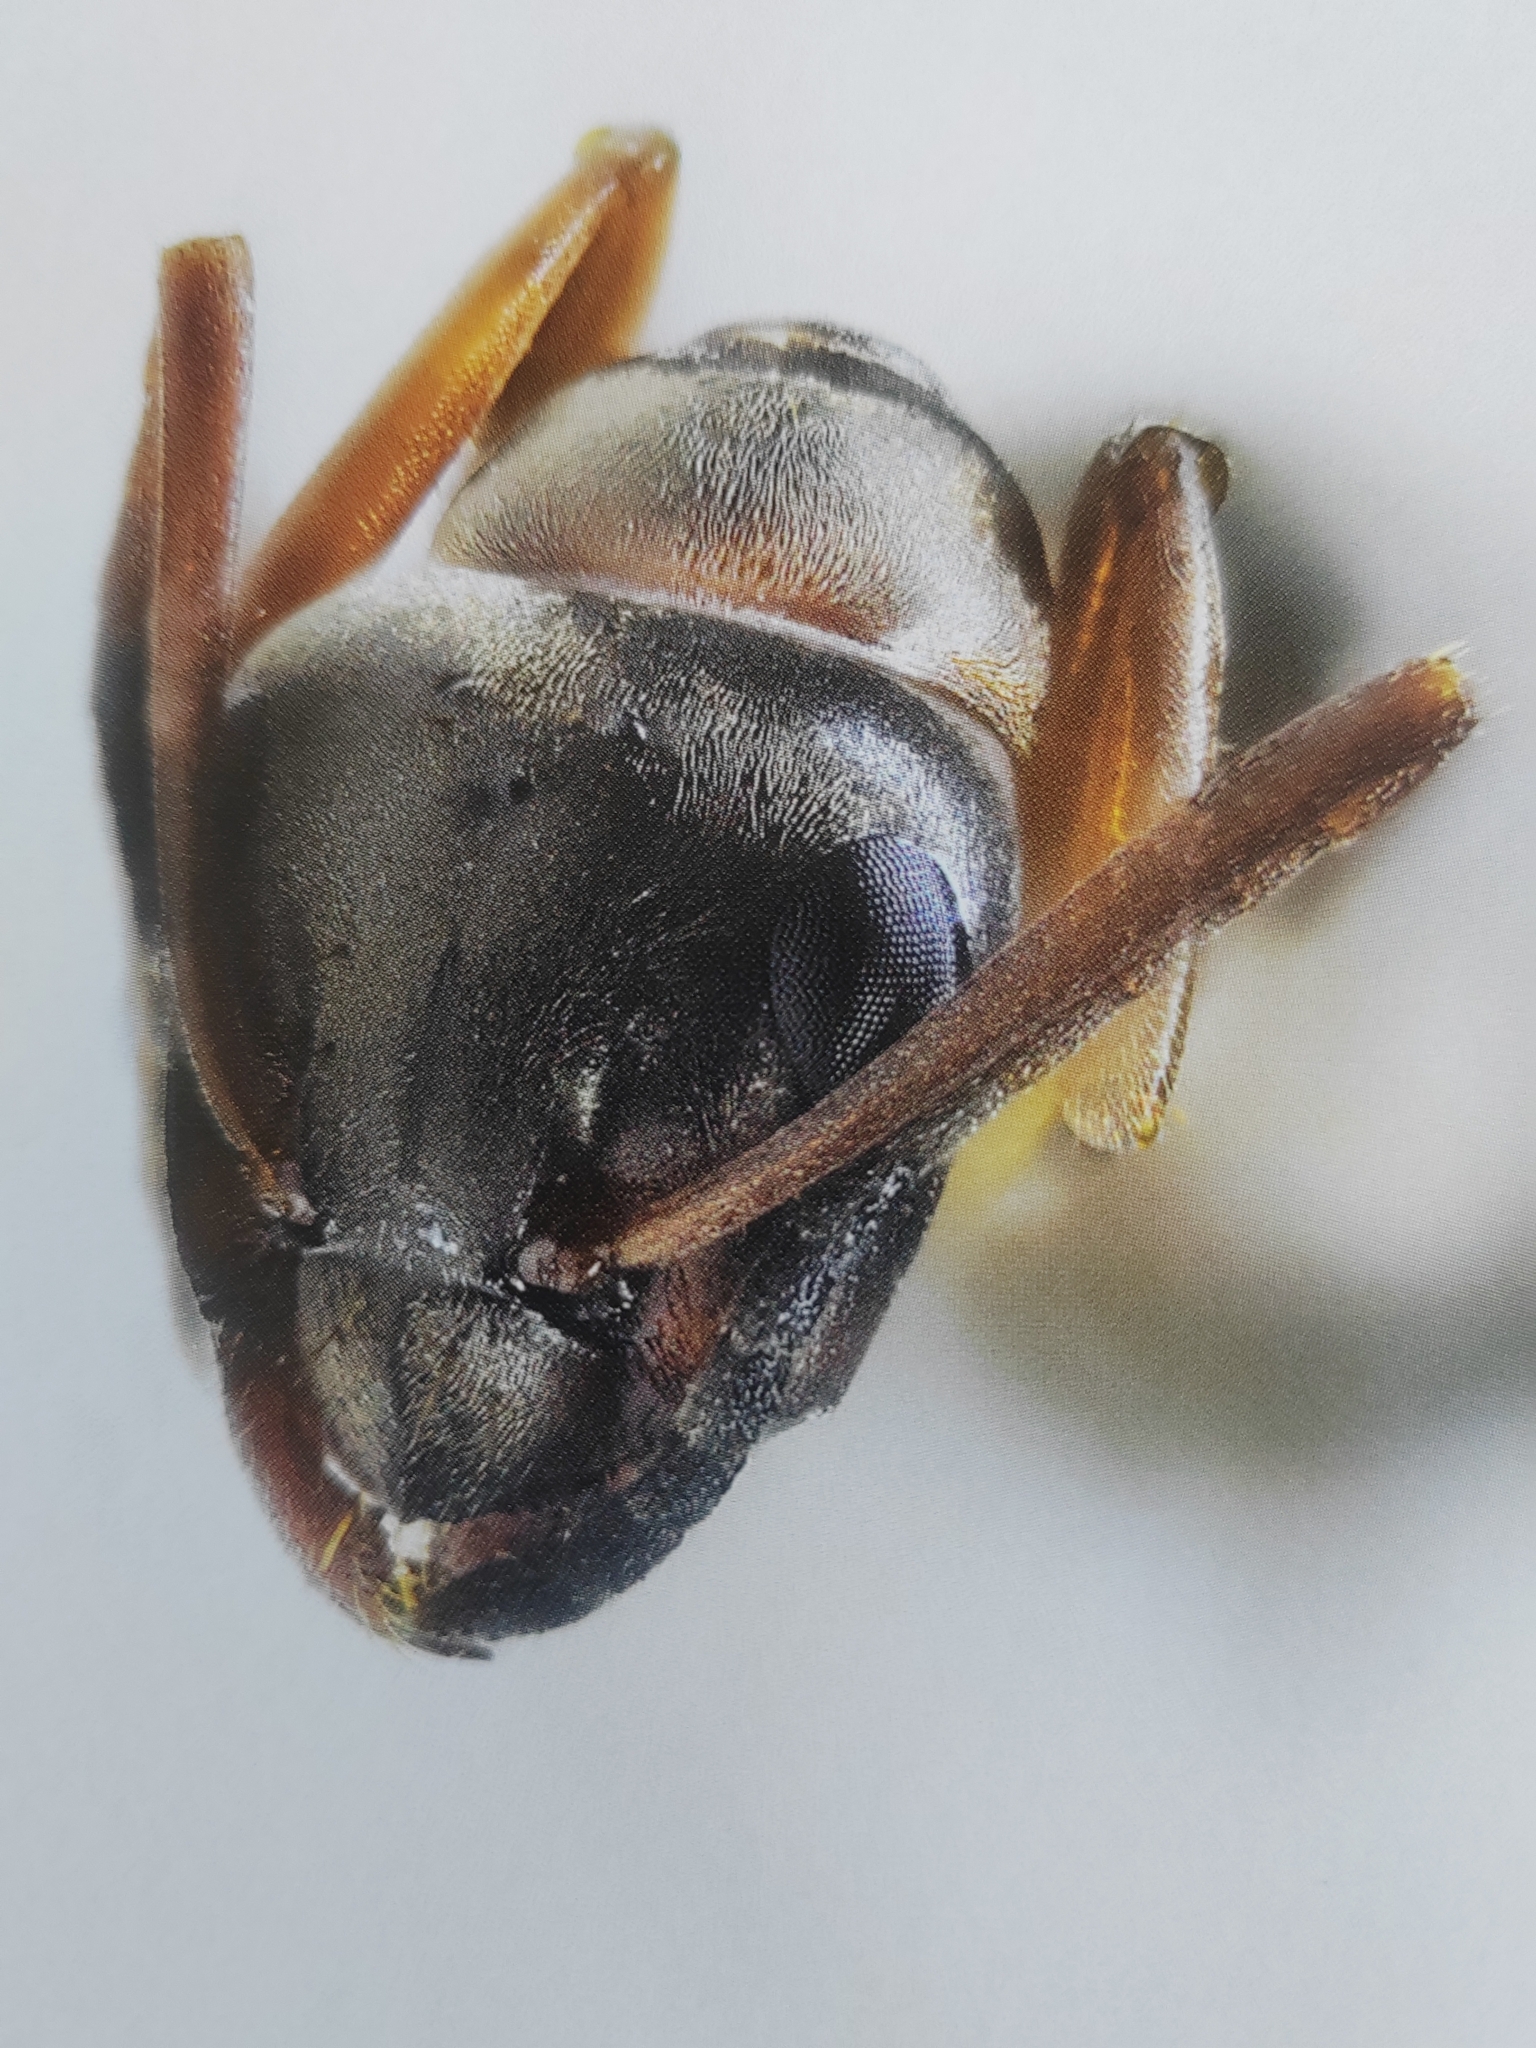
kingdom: Animalia
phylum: Arthropoda
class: Insecta
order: Hymenoptera
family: Formicidae
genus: Formica
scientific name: Formica cunicularia
